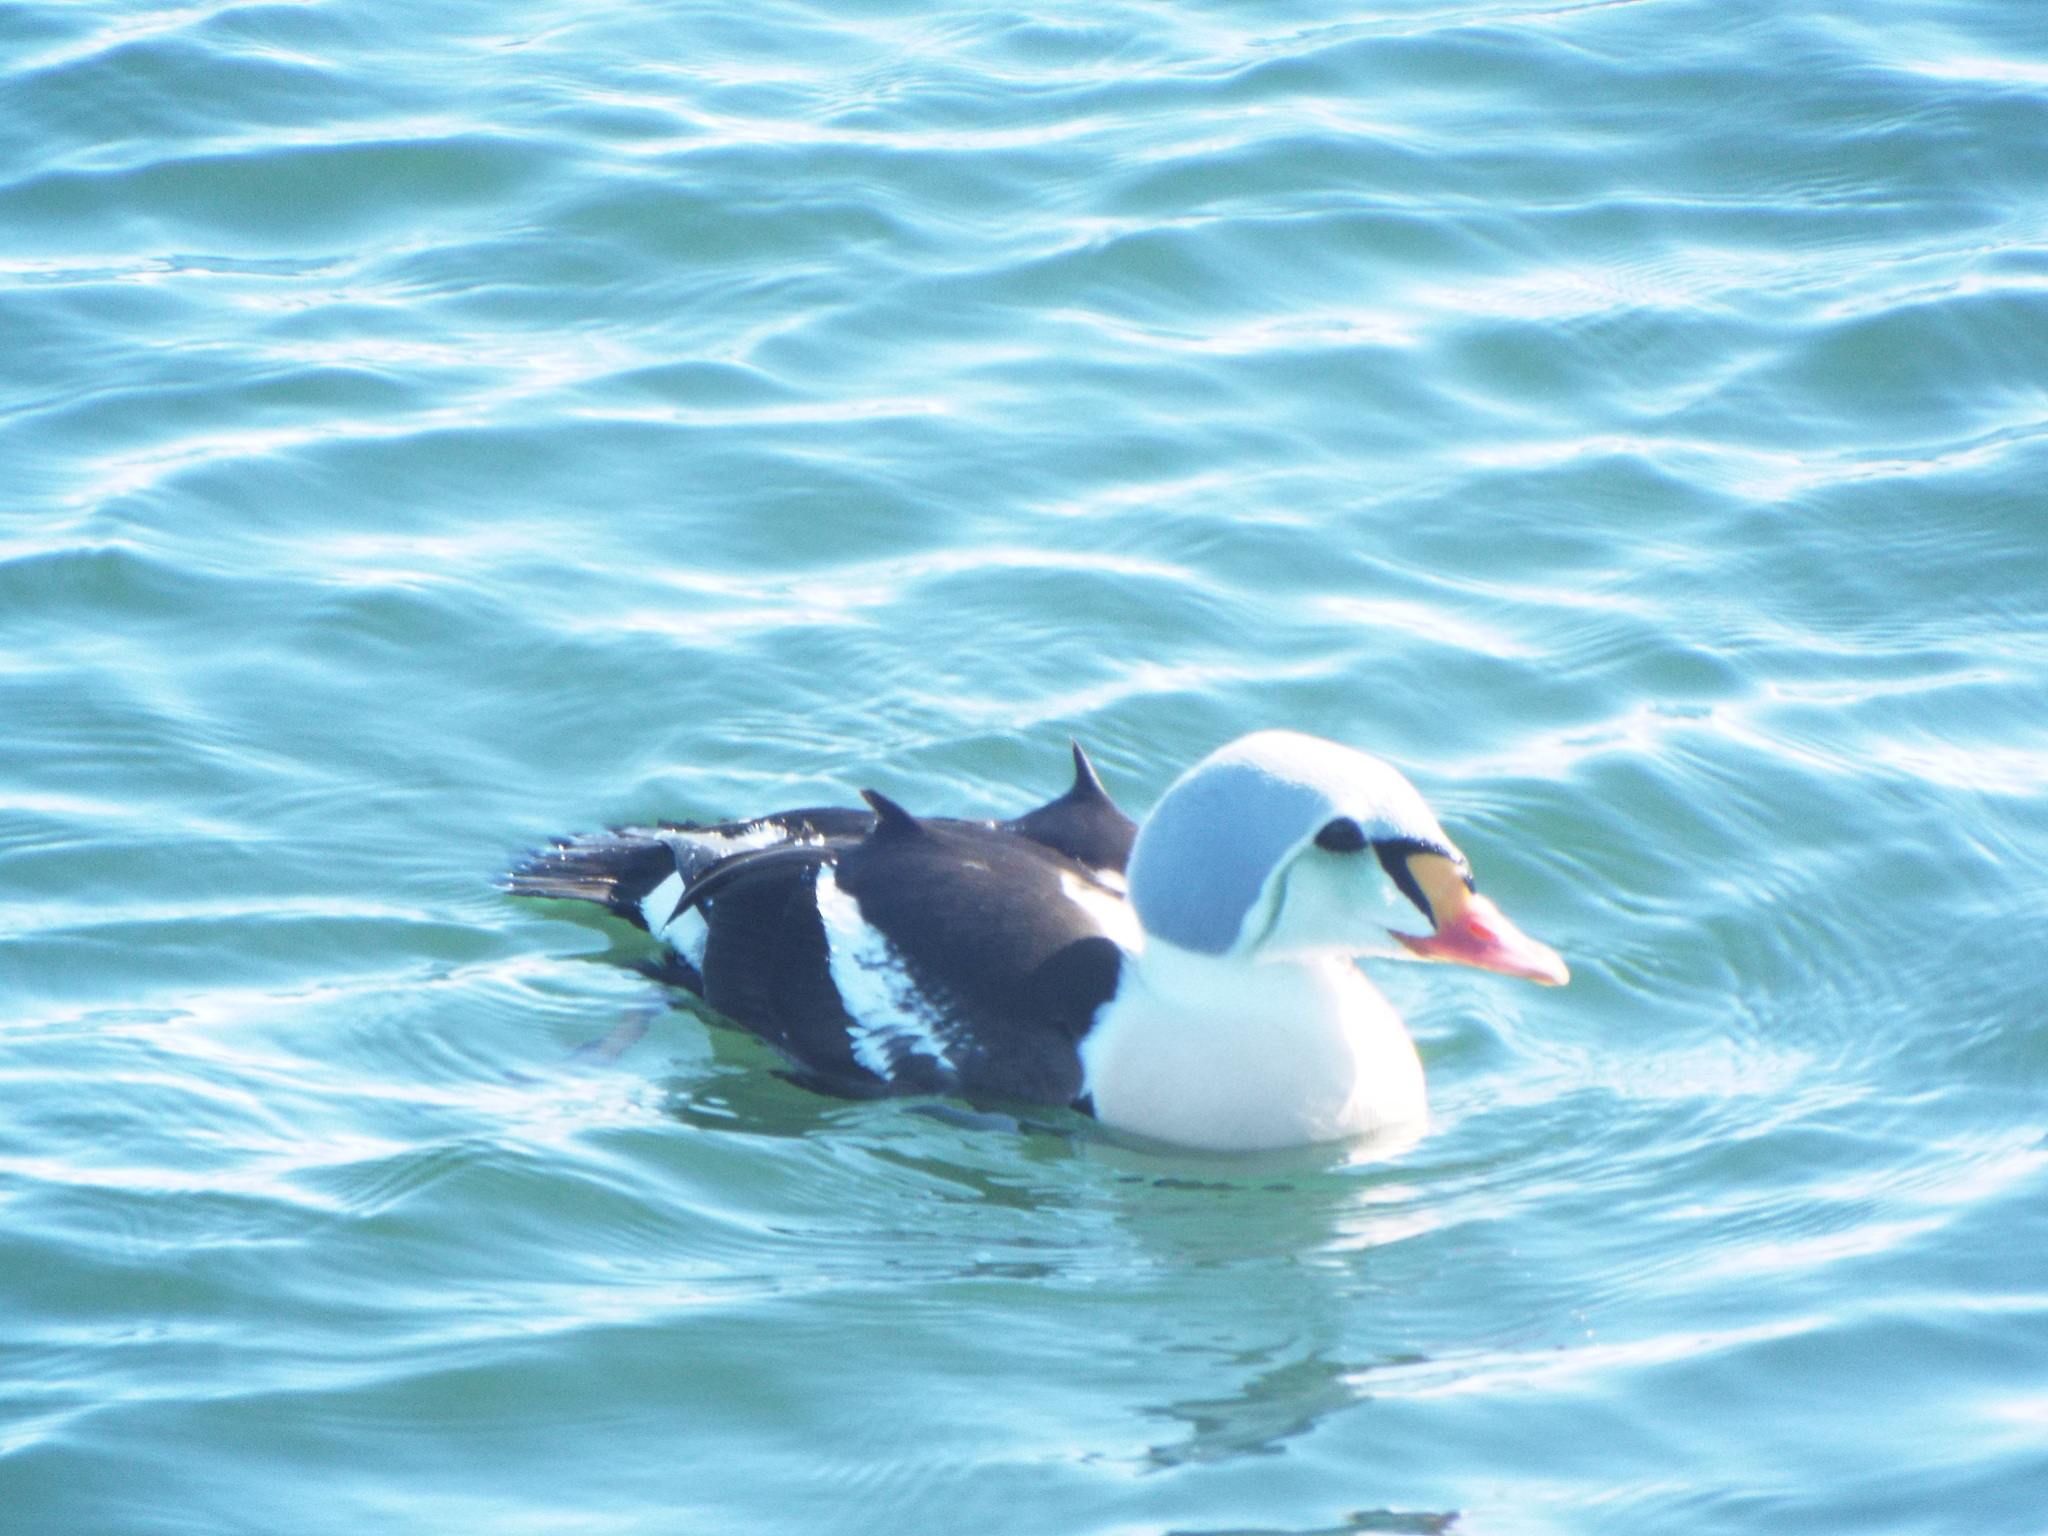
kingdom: Animalia
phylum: Chordata
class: Aves
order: Anseriformes
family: Anatidae
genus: Somateria
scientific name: Somateria spectabilis
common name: King eider
